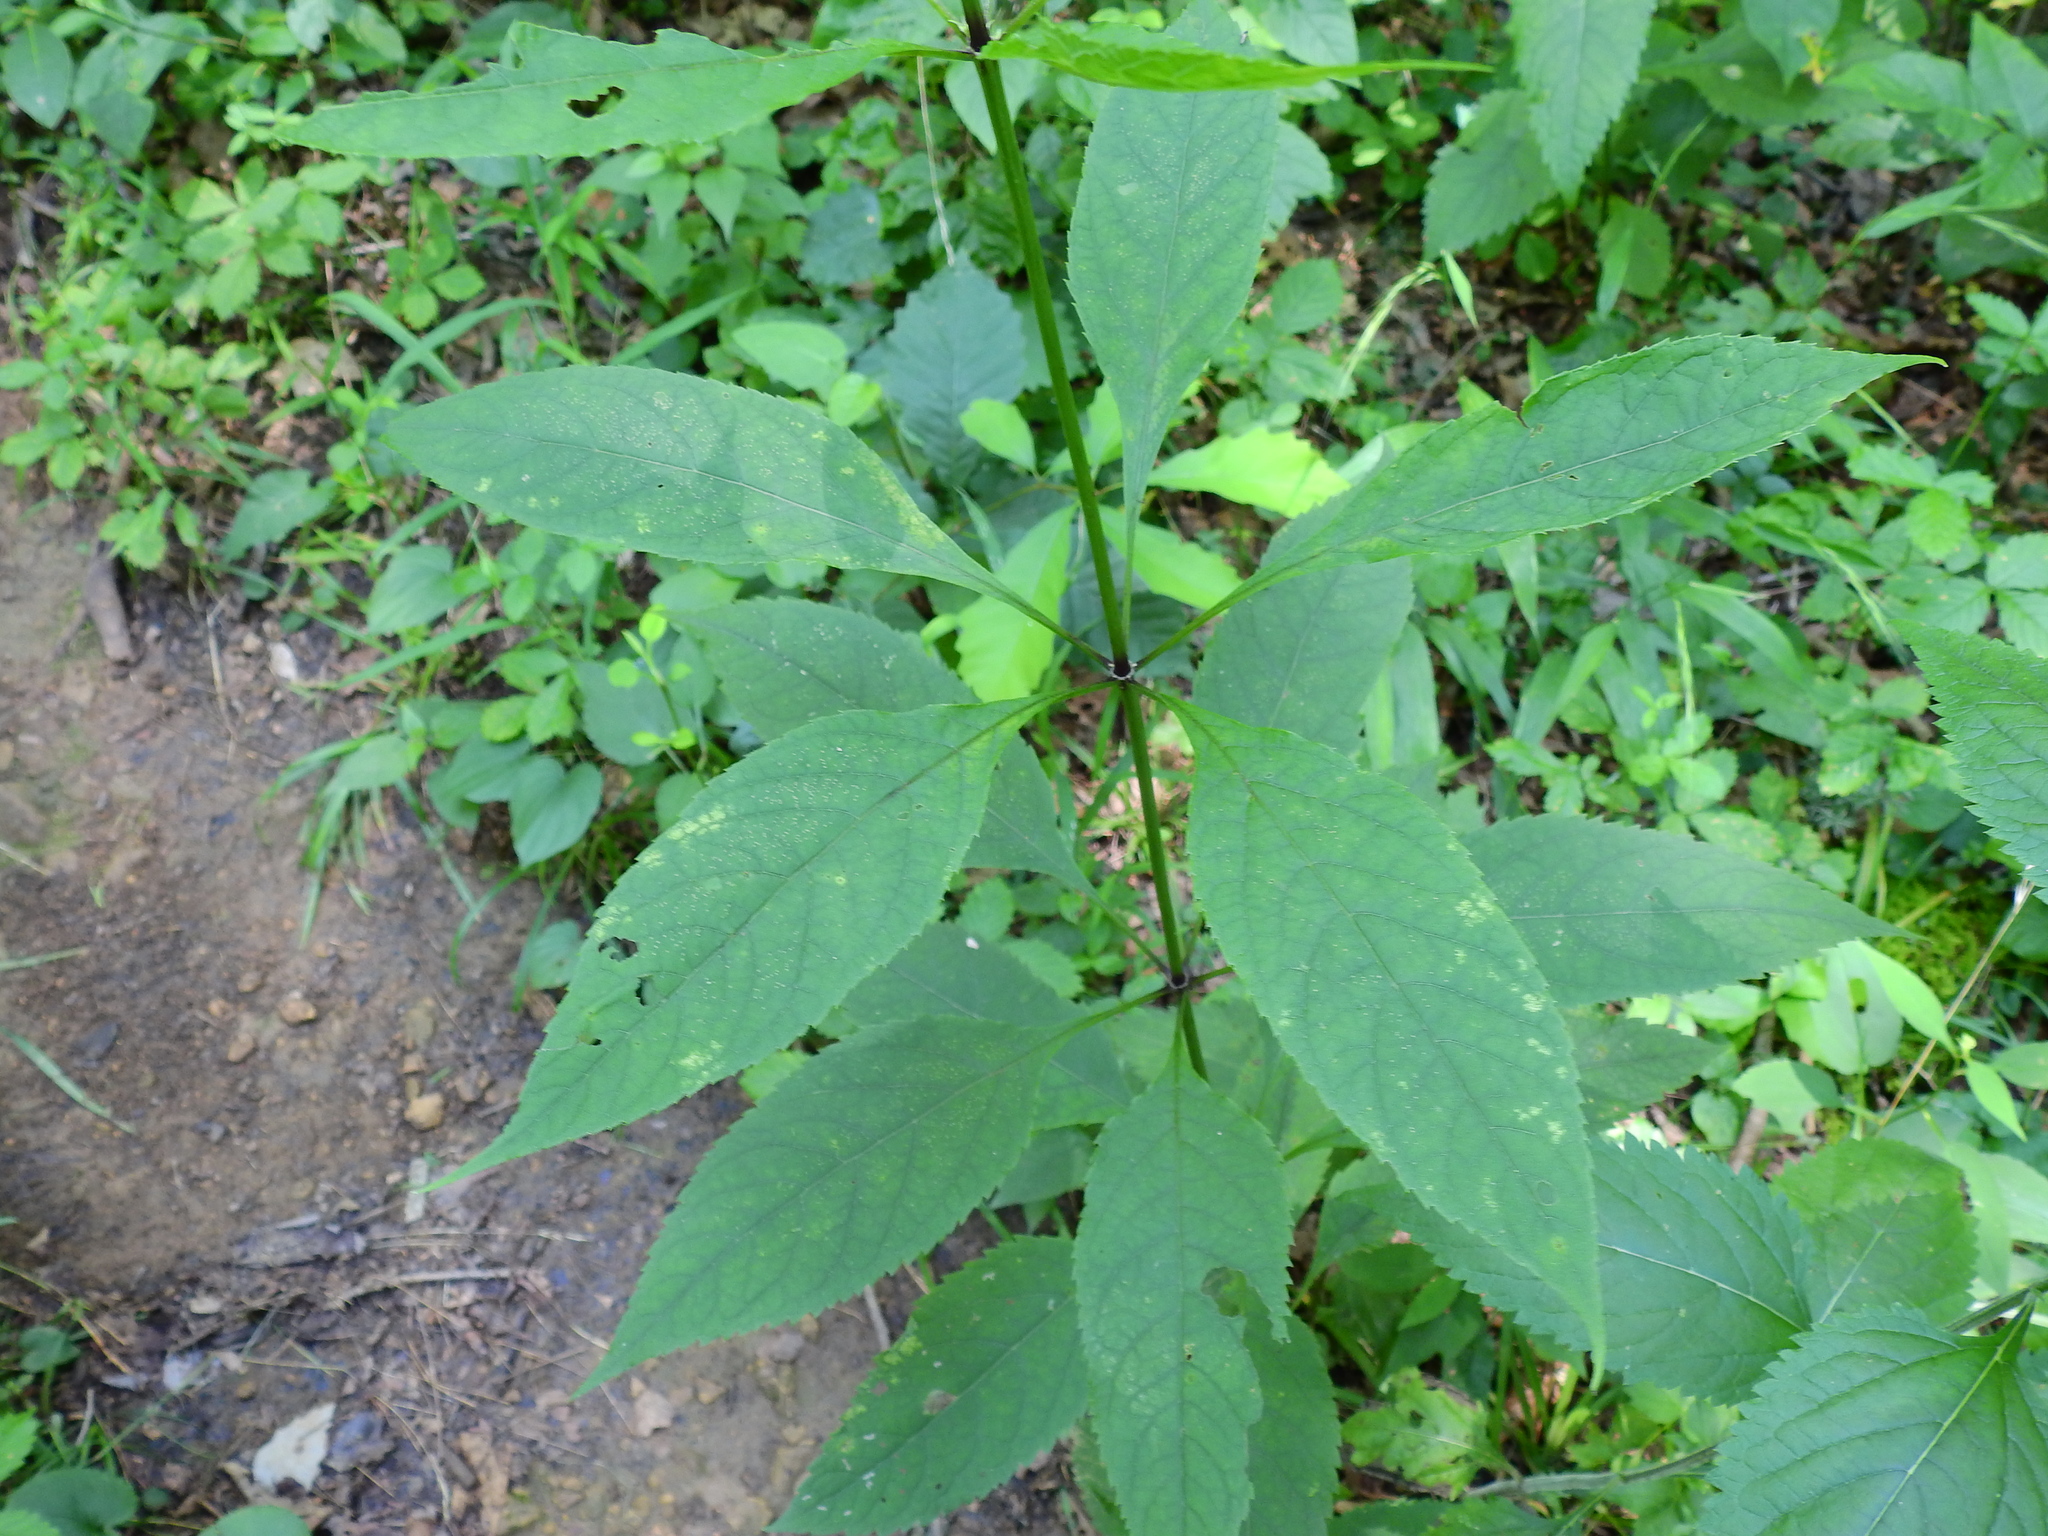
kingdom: Plantae
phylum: Tracheophyta
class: Magnoliopsida
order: Asterales
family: Asteraceae
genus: Eutrochium
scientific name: Eutrochium purpureum
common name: Gravelroot
